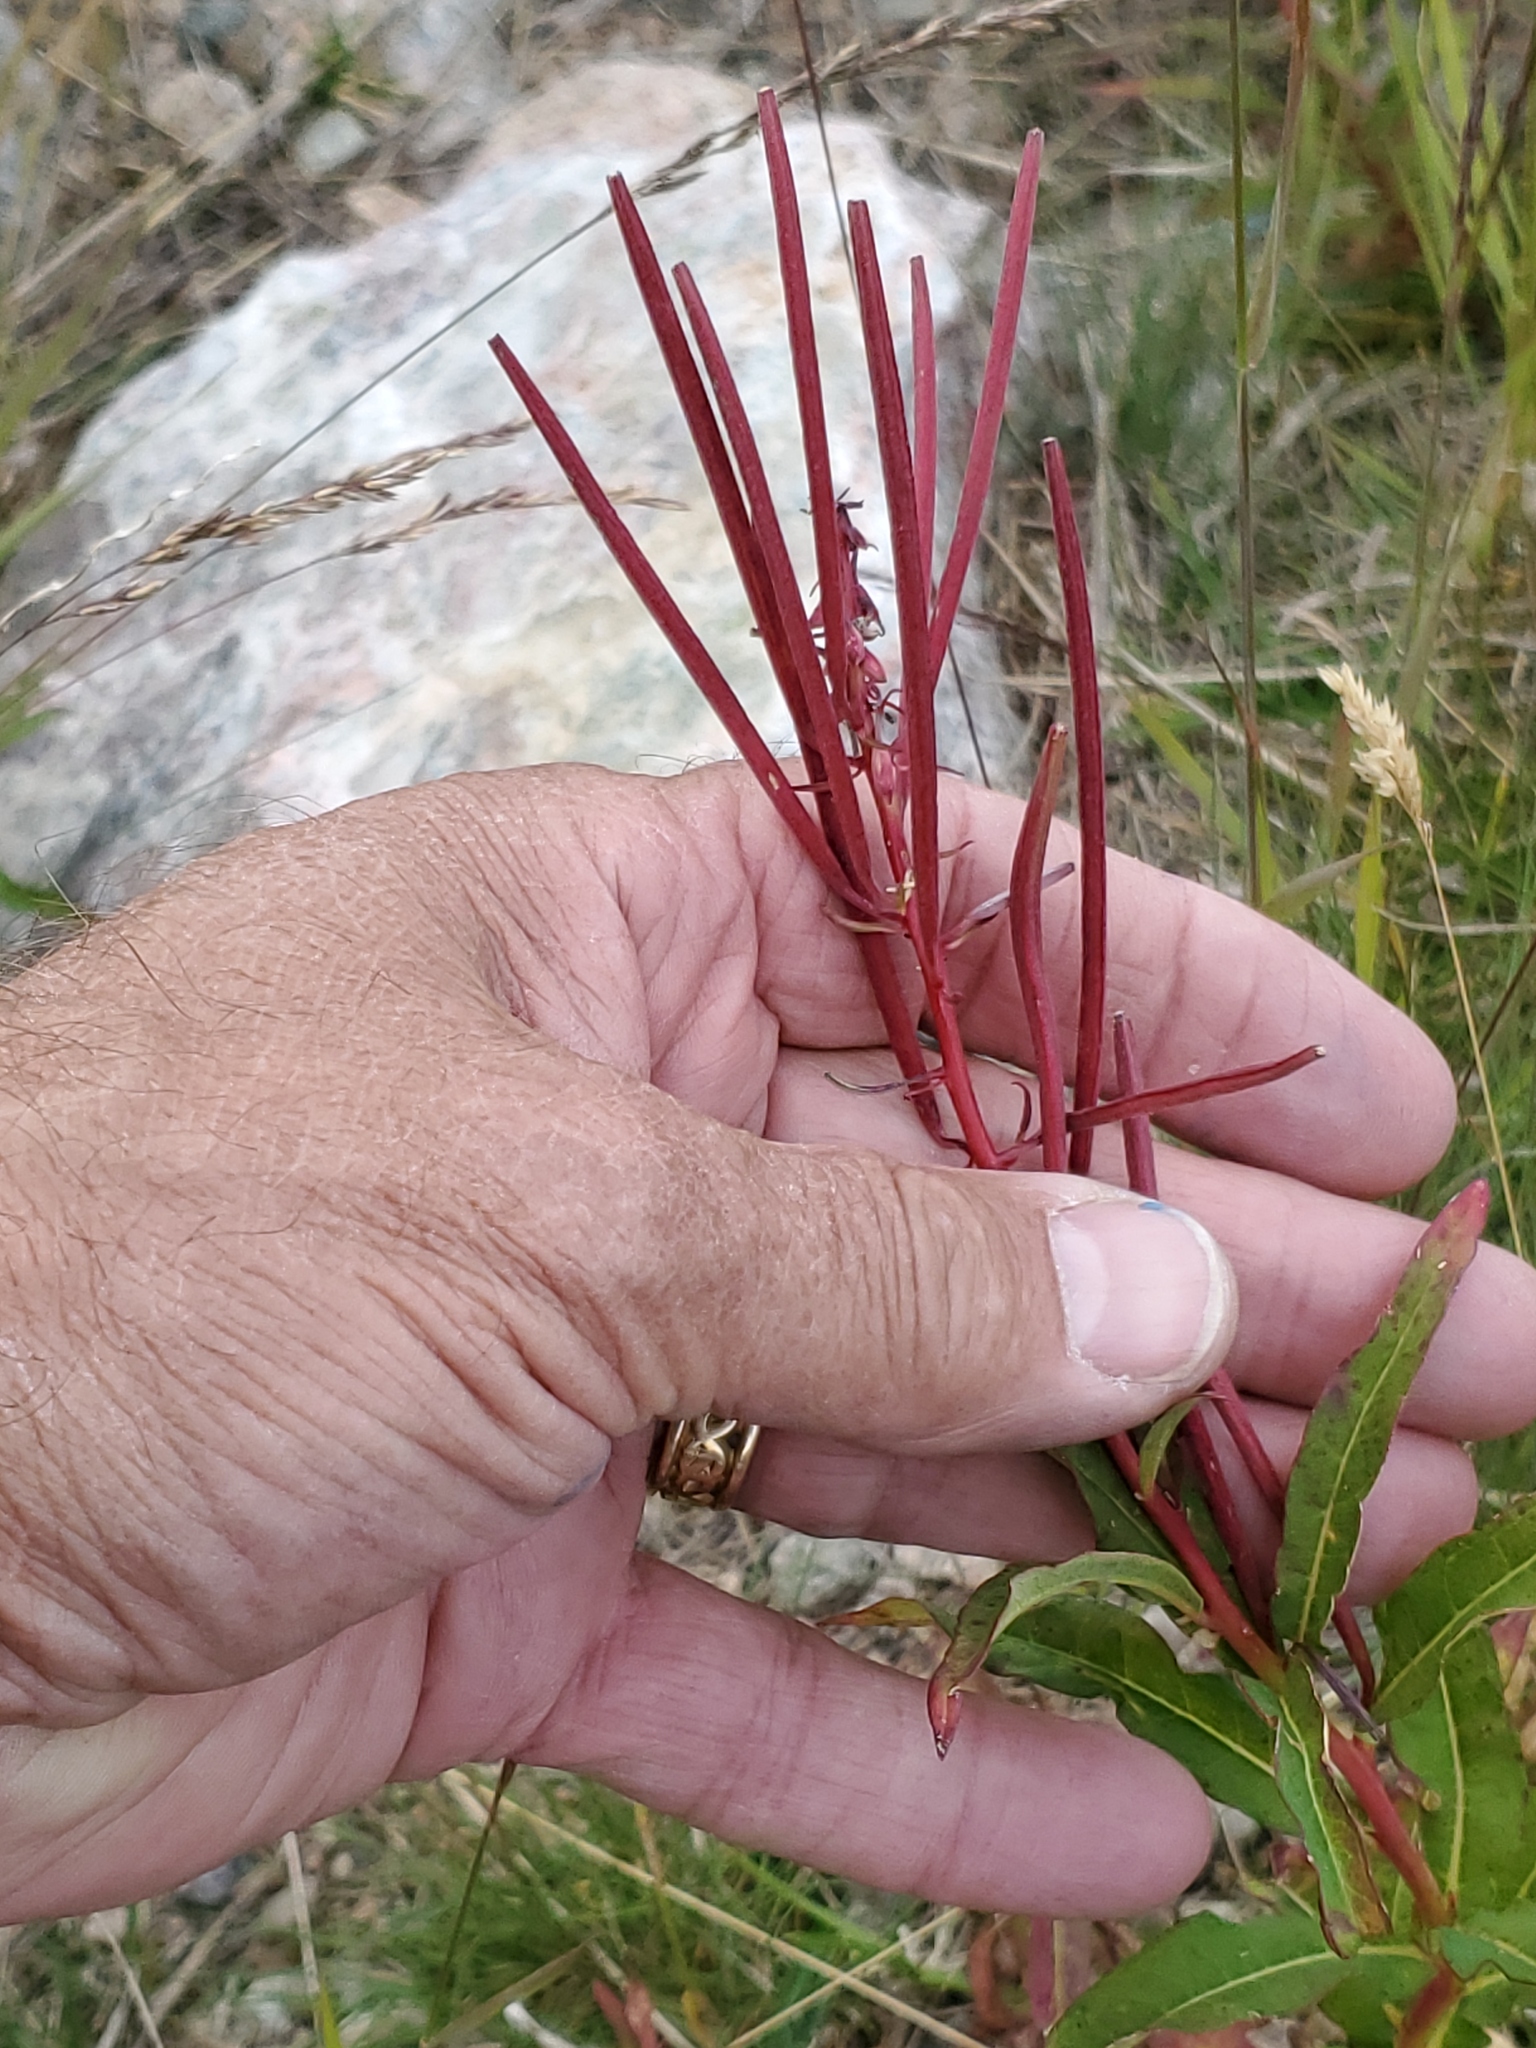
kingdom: Plantae
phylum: Tracheophyta
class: Magnoliopsida
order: Myrtales
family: Onagraceae
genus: Chamaenerion
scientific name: Chamaenerion angustifolium
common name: Fireweed
